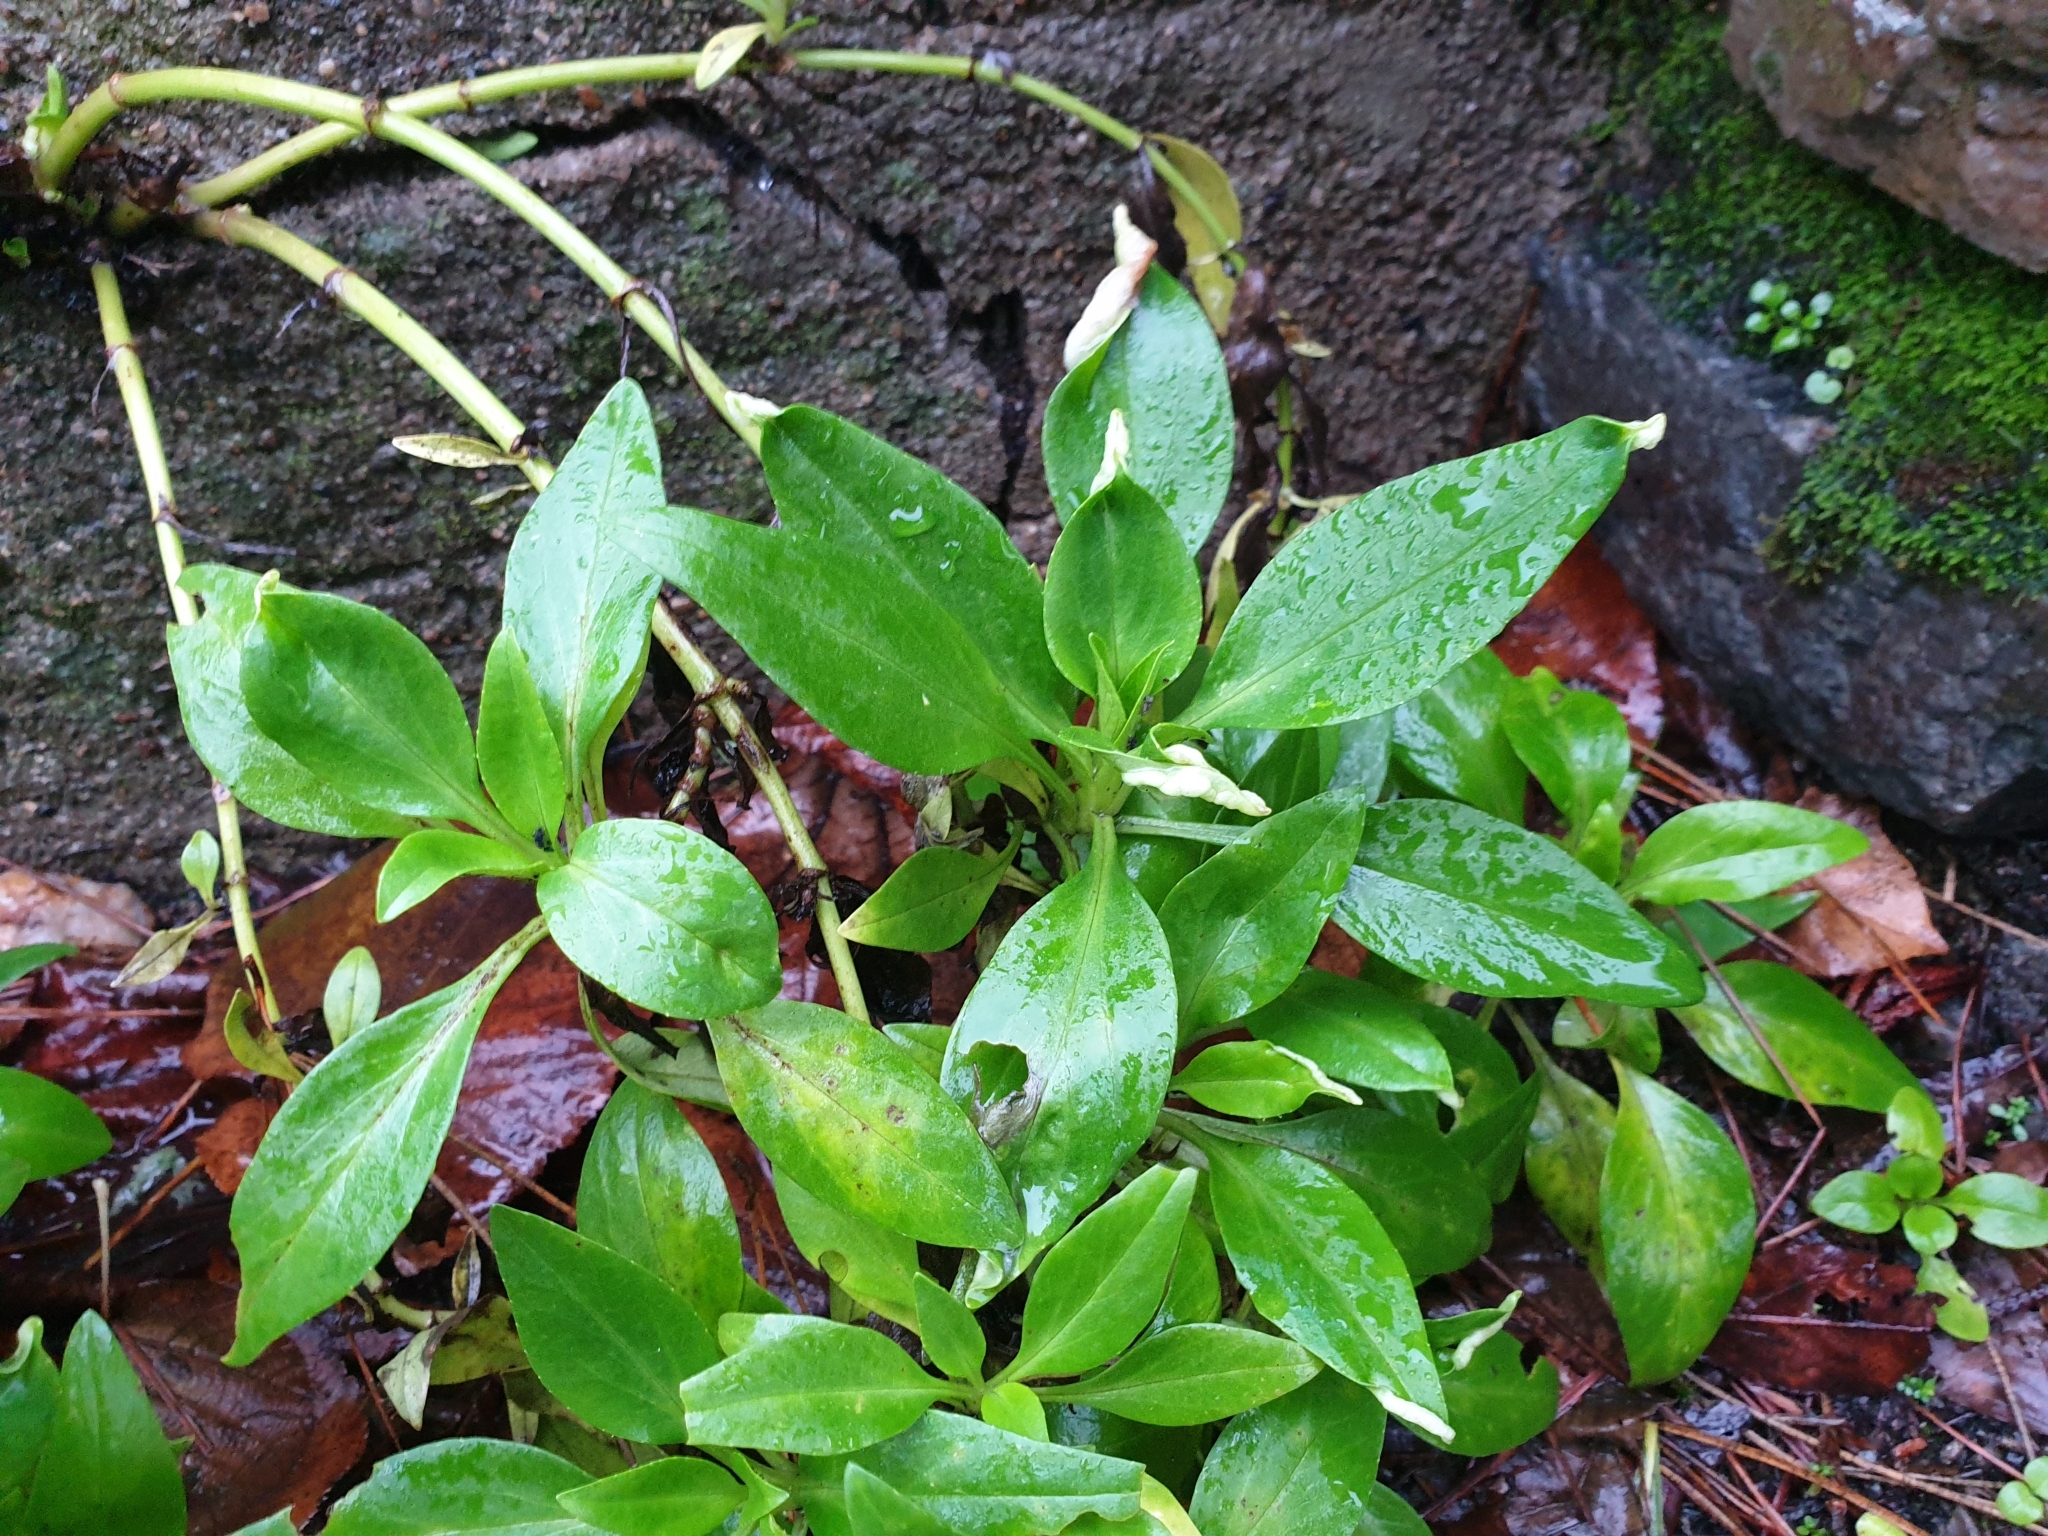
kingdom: Plantae
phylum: Tracheophyta
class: Magnoliopsida
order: Dipsacales
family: Caprifoliaceae
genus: Centranthus
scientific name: Centranthus ruber
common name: Red valerian
